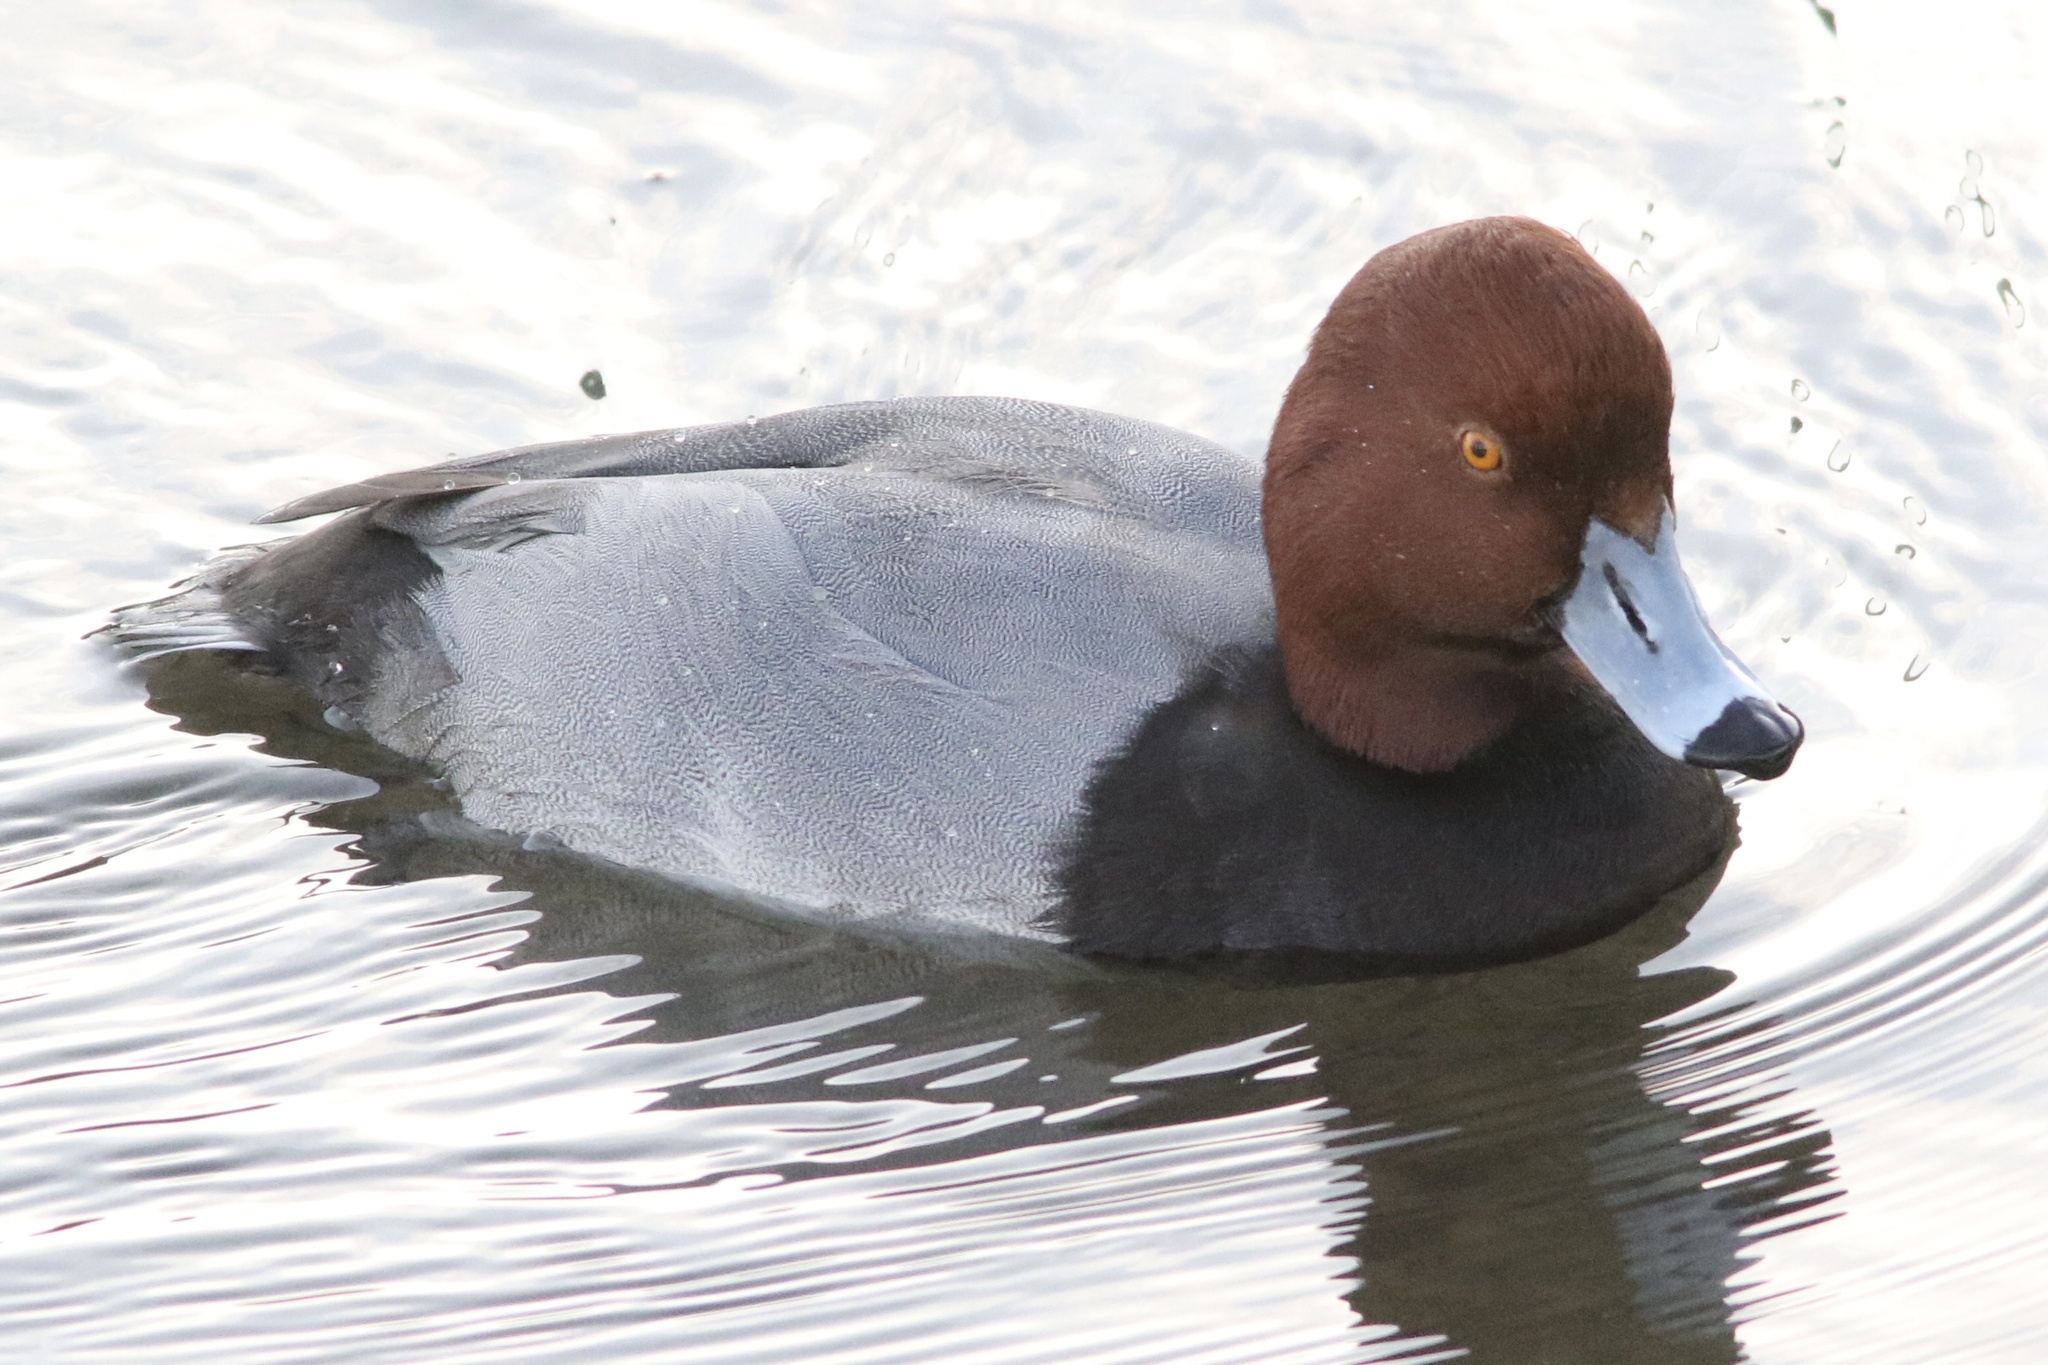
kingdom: Animalia
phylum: Chordata
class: Aves
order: Anseriformes
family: Anatidae
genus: Aythya
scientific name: Aythya americana
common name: Redhead
